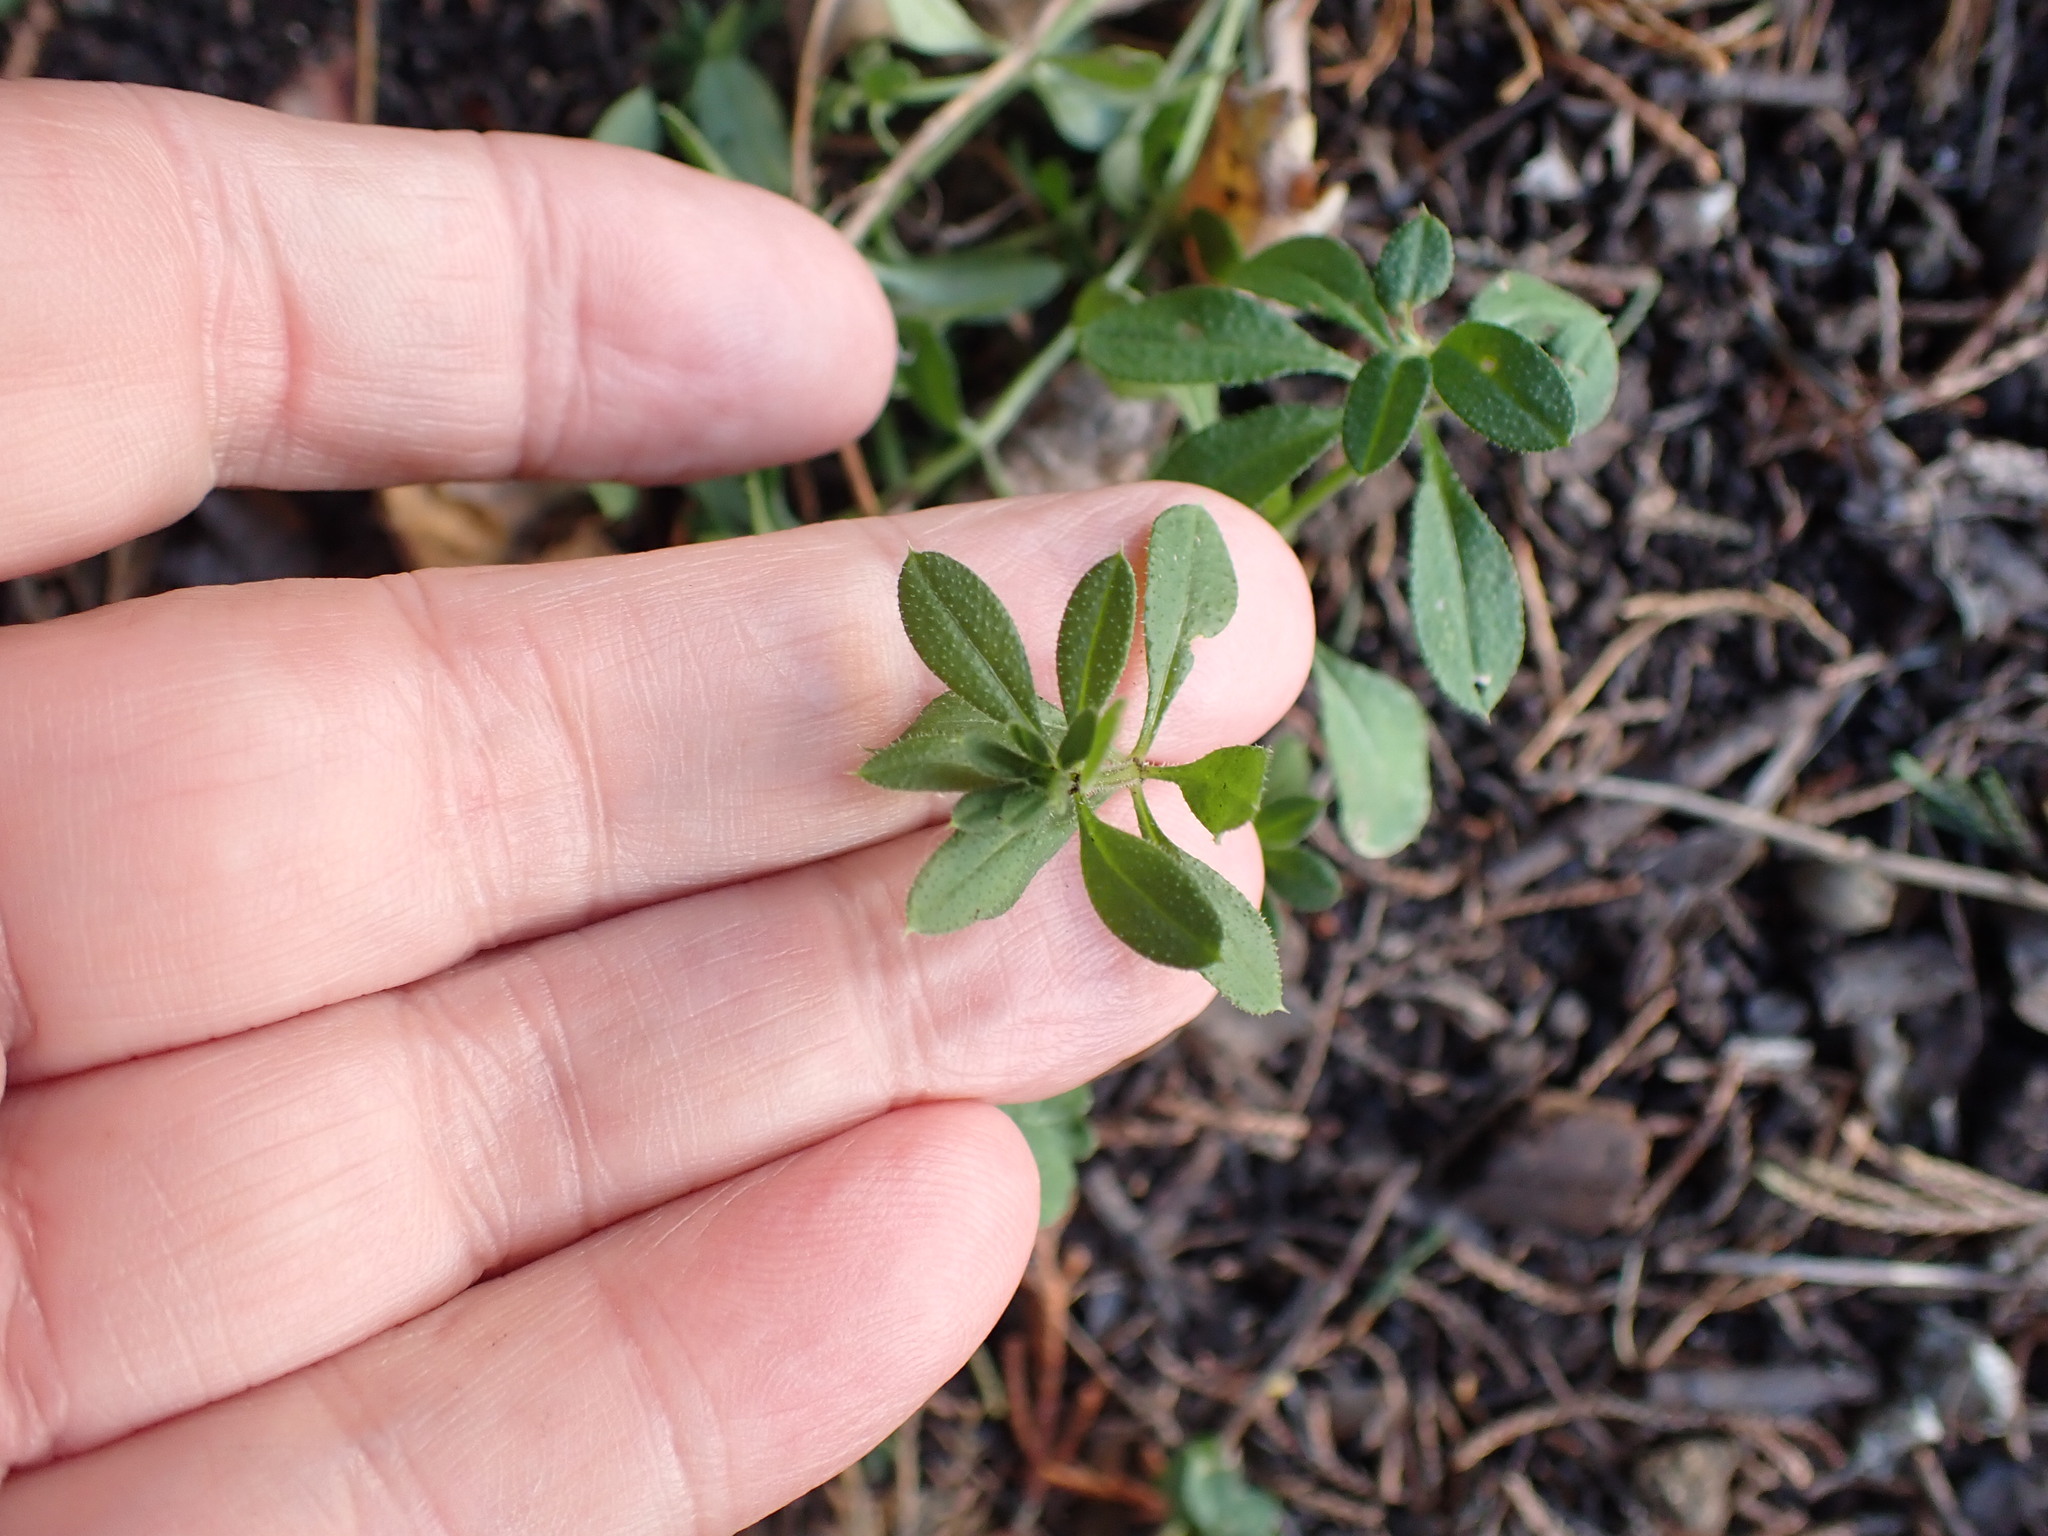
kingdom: Plantae
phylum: Tracheophyta
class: Magnoliopsida
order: Gentianales
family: Rubiaceae
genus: Galium
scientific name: Galium aparine
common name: Cleavers
